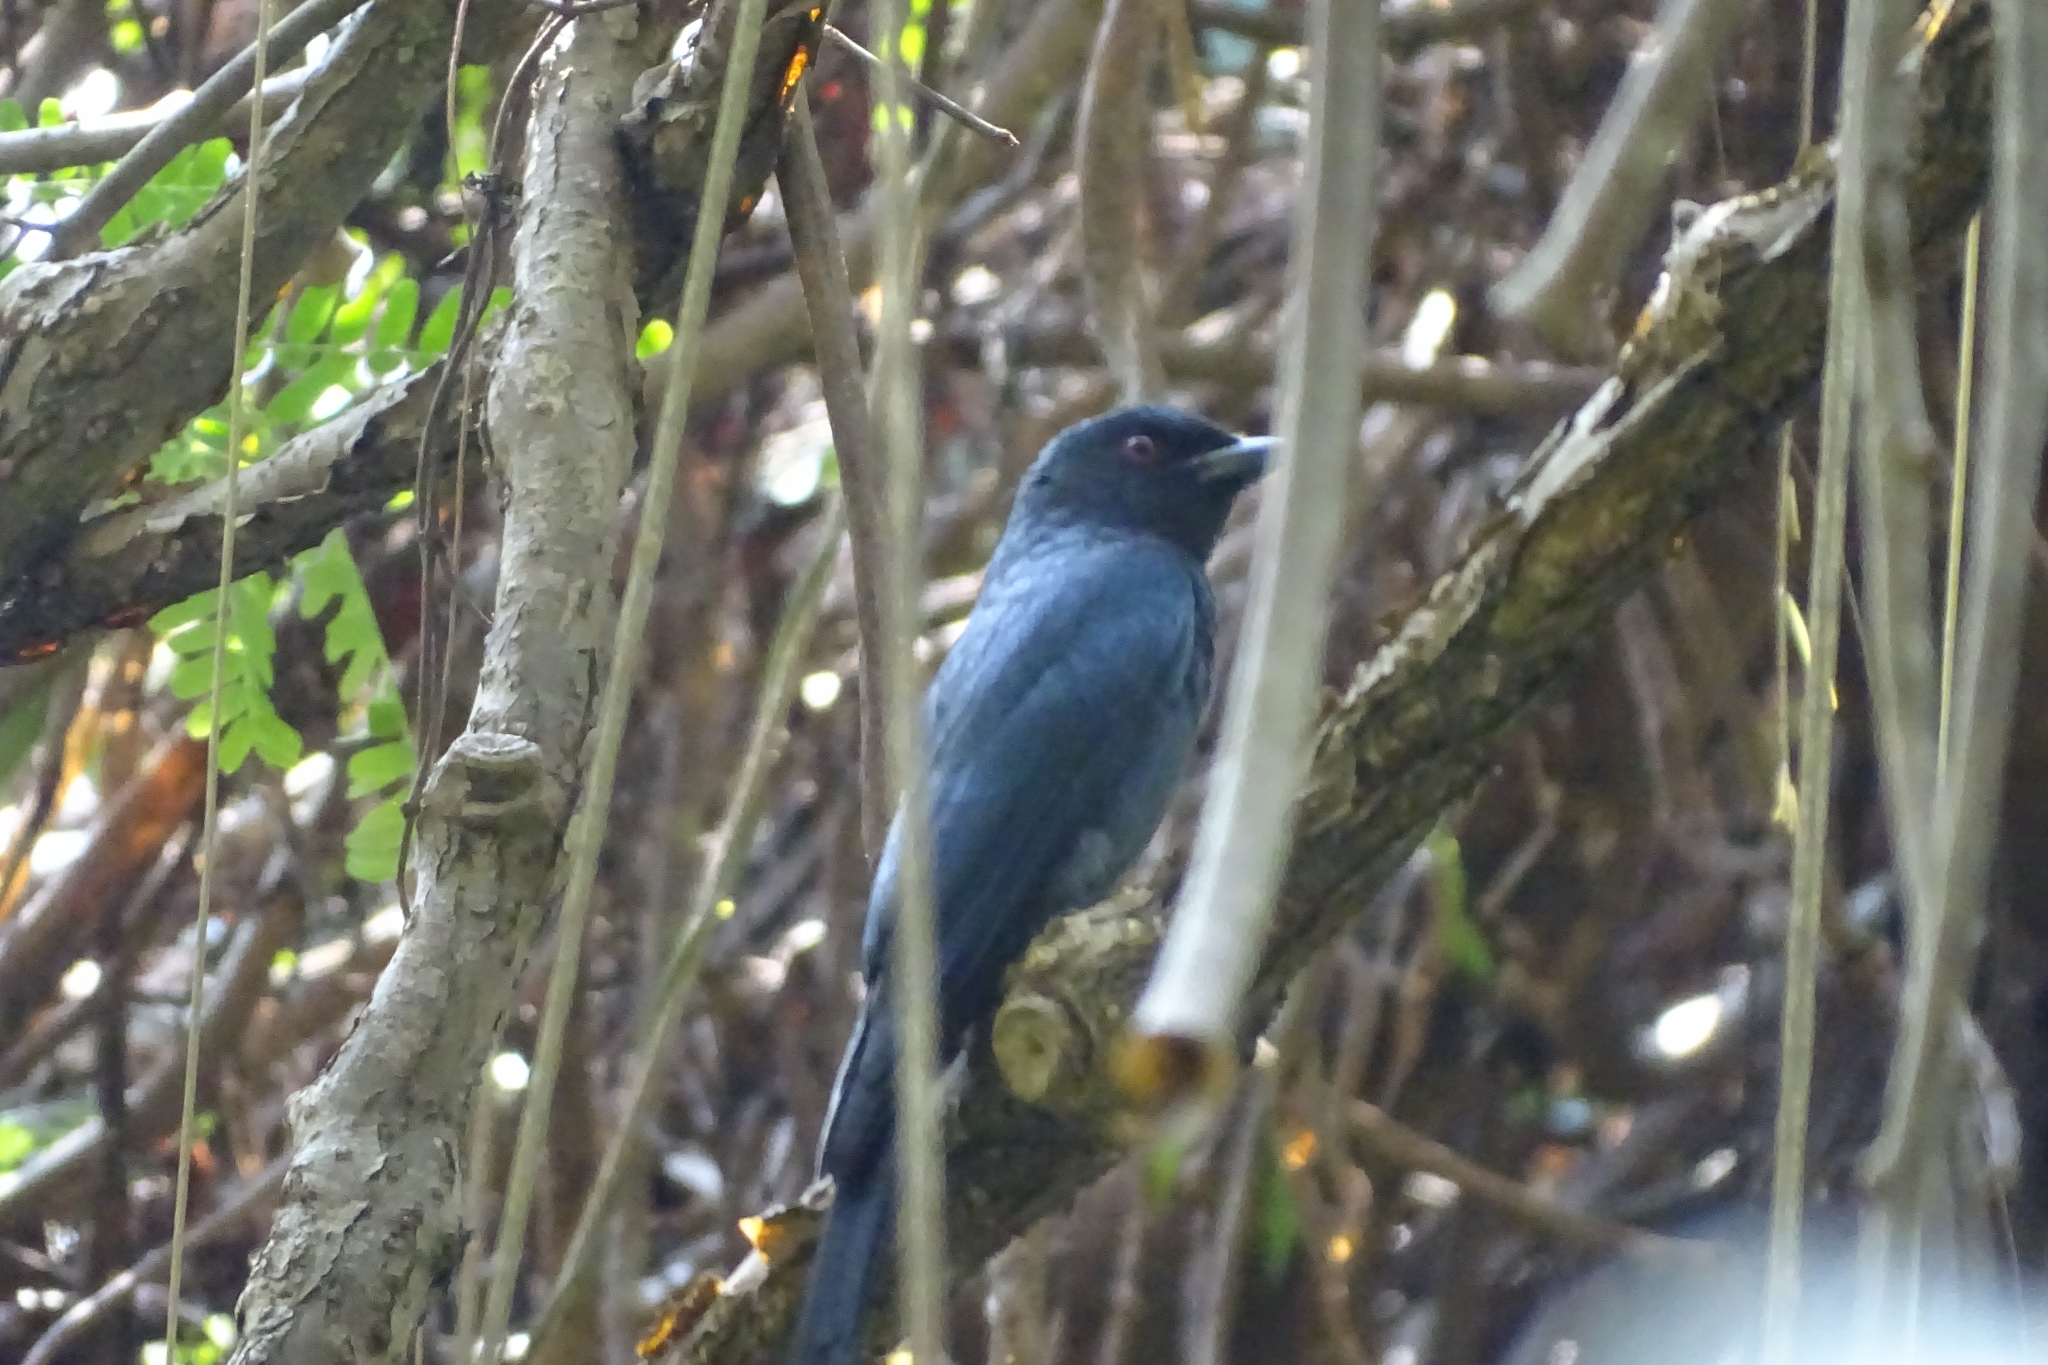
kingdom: Animalia
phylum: Chordata
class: Aves
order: Passeriformes
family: Dicruridae
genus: Dicrurus
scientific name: Dicrurus leucophaeus
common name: Ashy drongo
